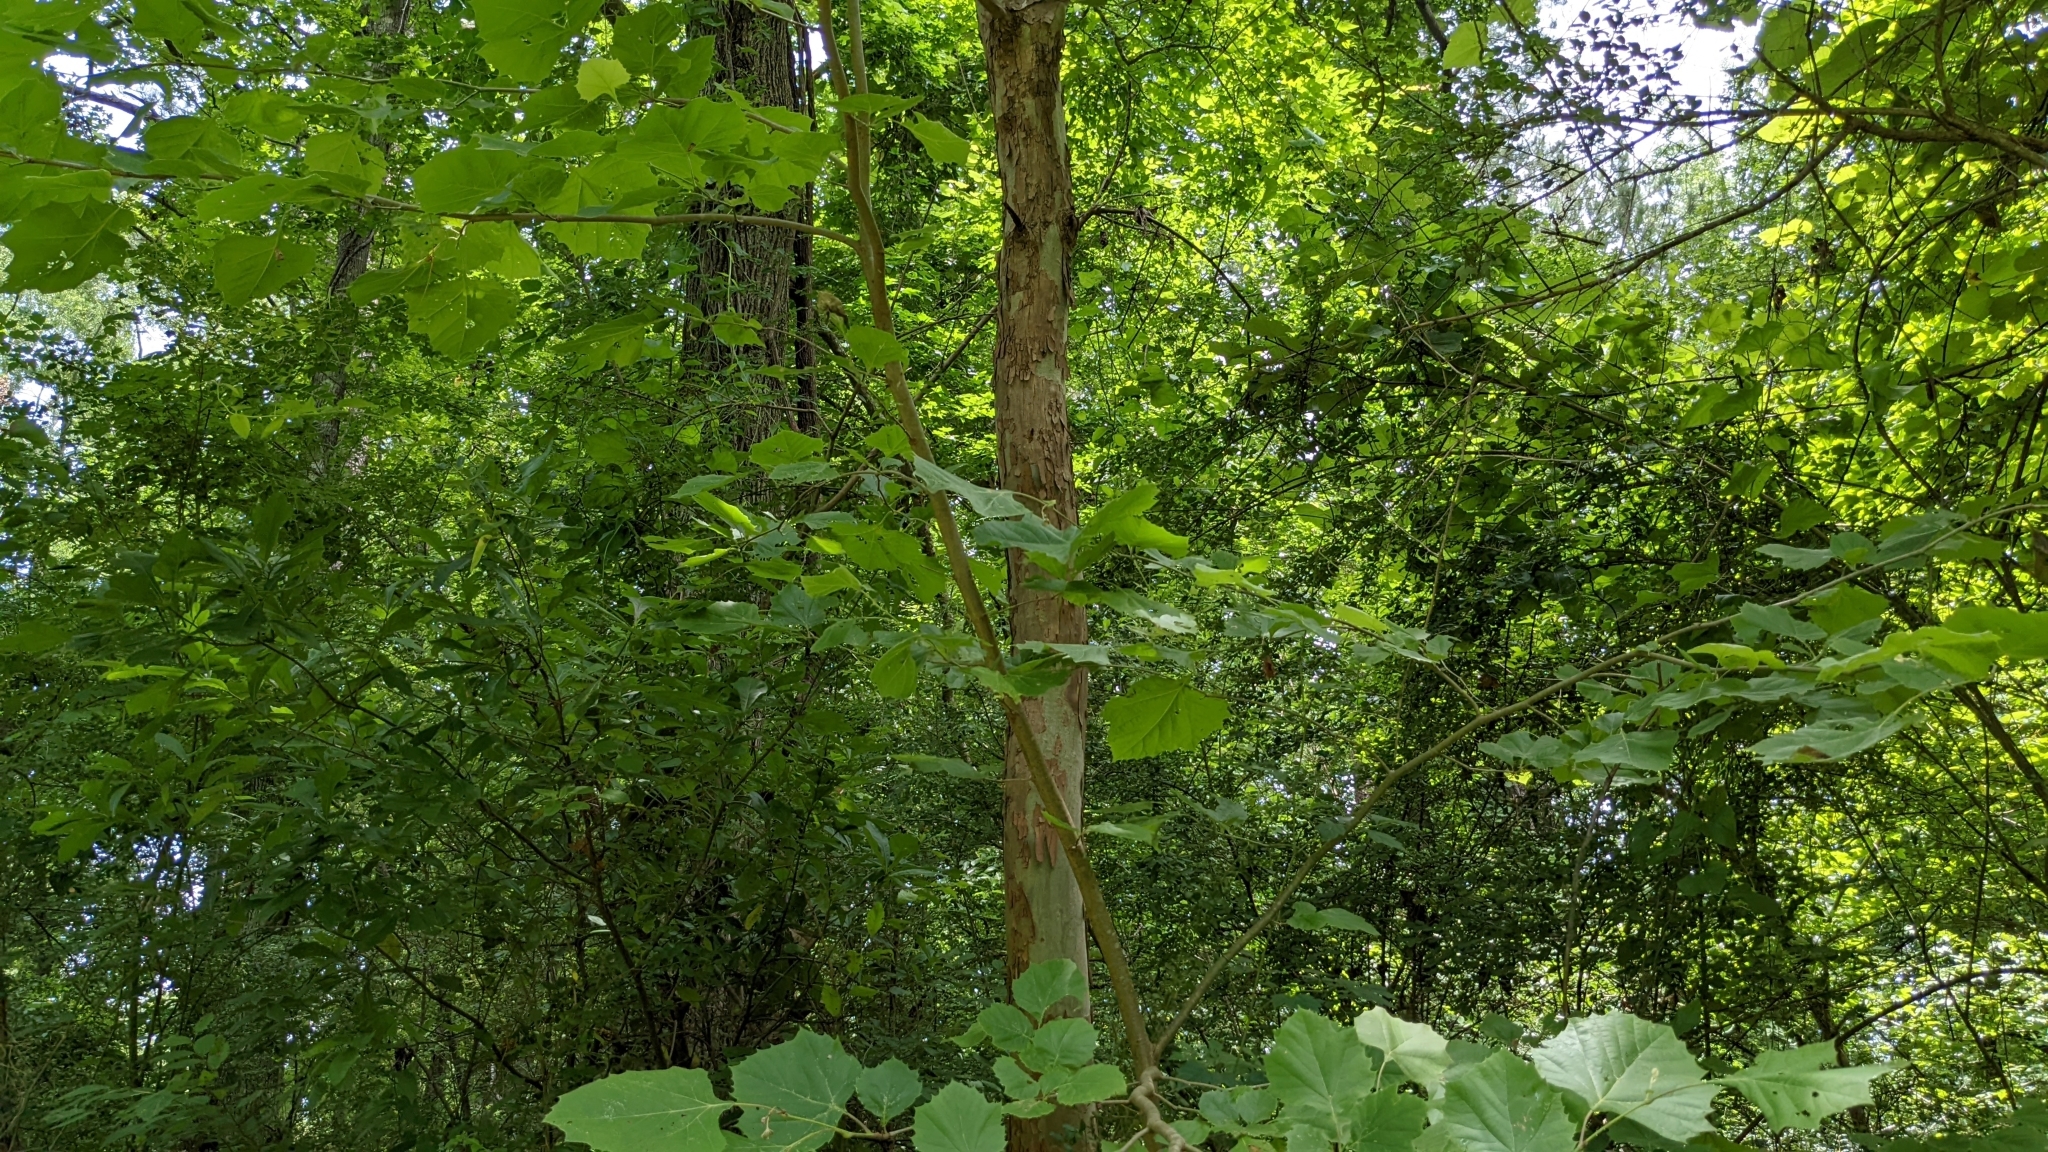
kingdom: Plantae
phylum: Tracheophyta
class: Magnoliopsida
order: Proteales
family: Platanaceae
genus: Platanus
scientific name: Platanus occidentalis
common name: American sycamore
